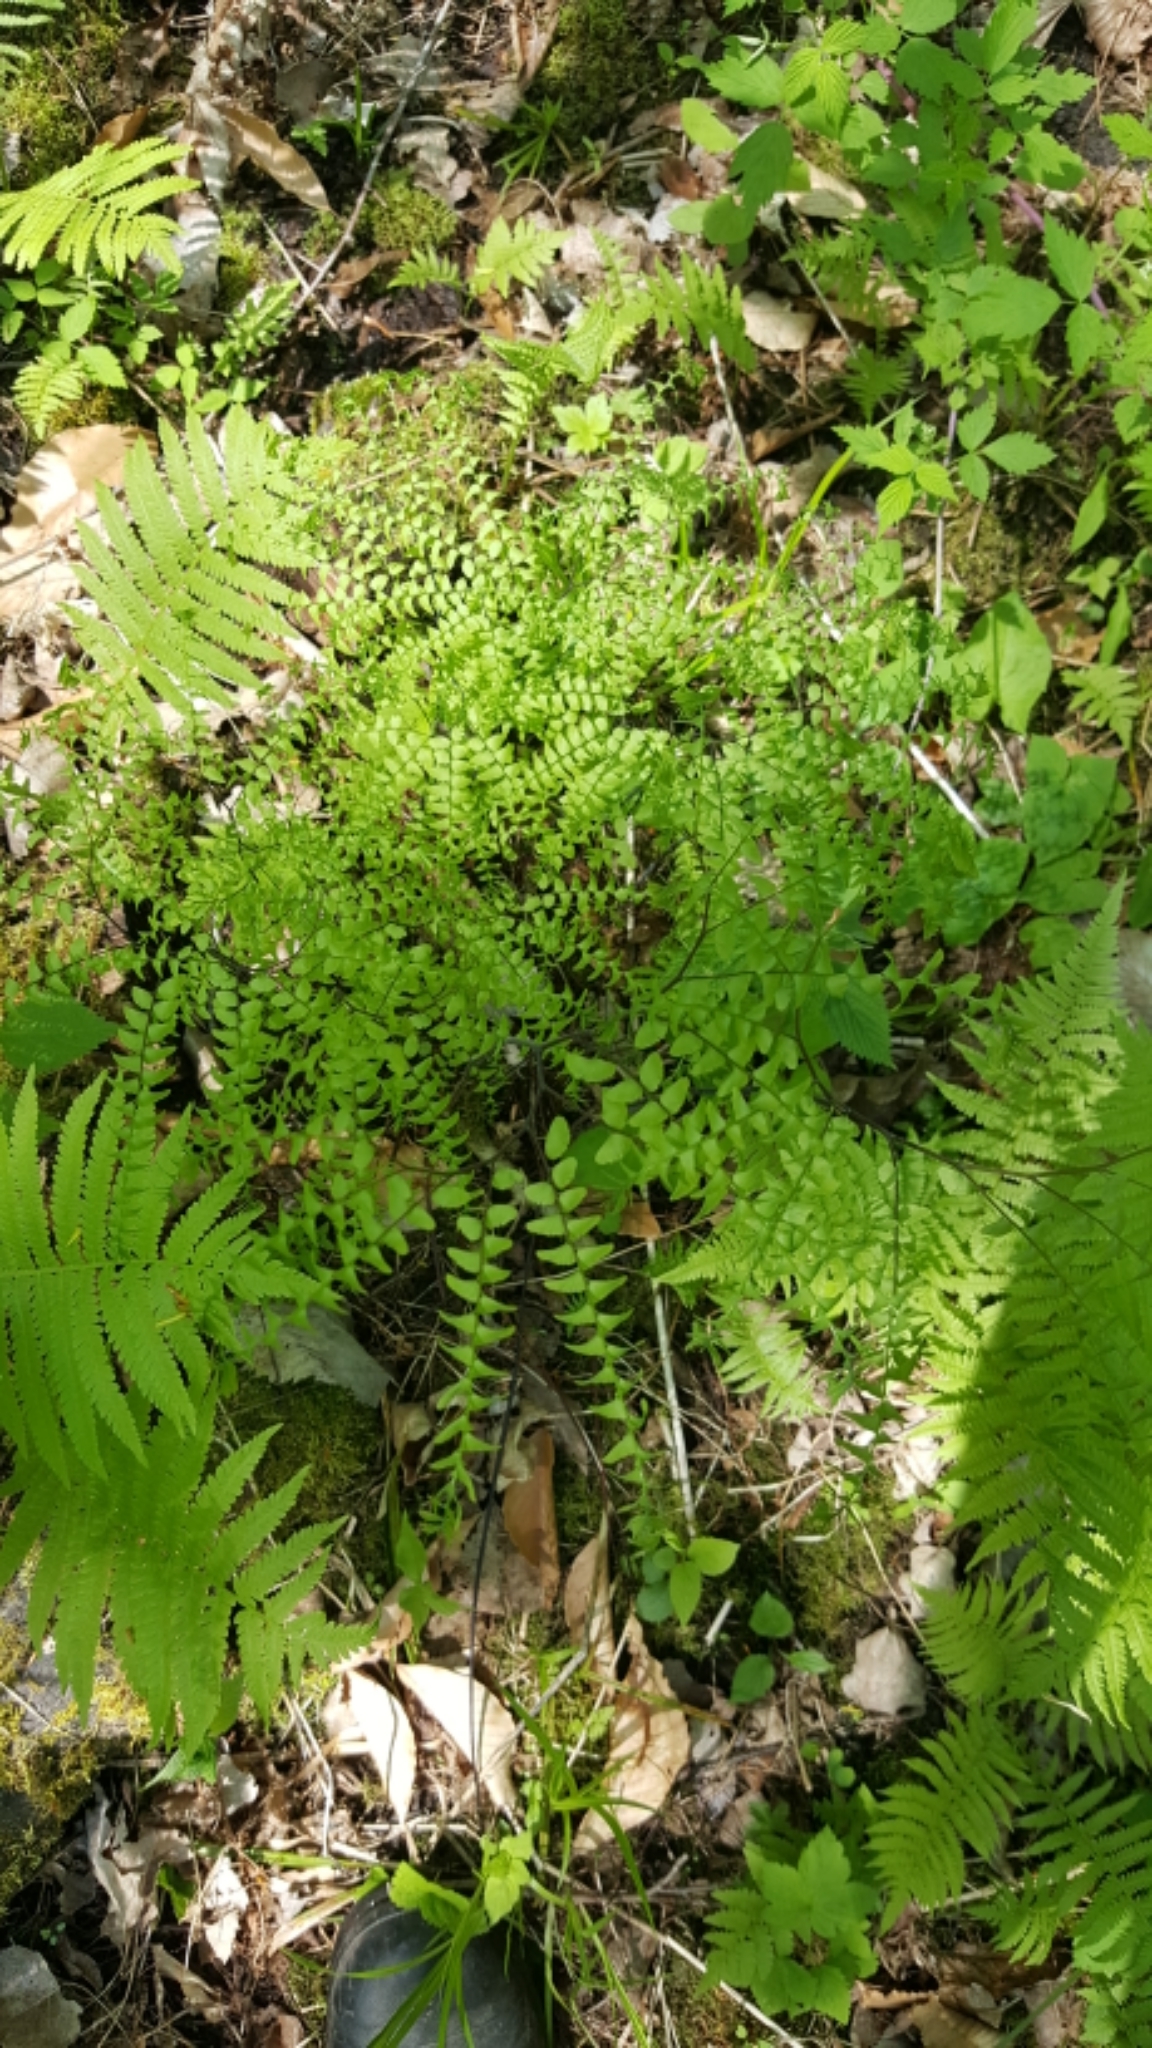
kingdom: Plantae
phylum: Tracheophyta
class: Polypodiopsida
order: Polypodiales
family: Pteridaceae
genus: Adiantum
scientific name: Adiantum pedatum
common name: Five-finger fern
